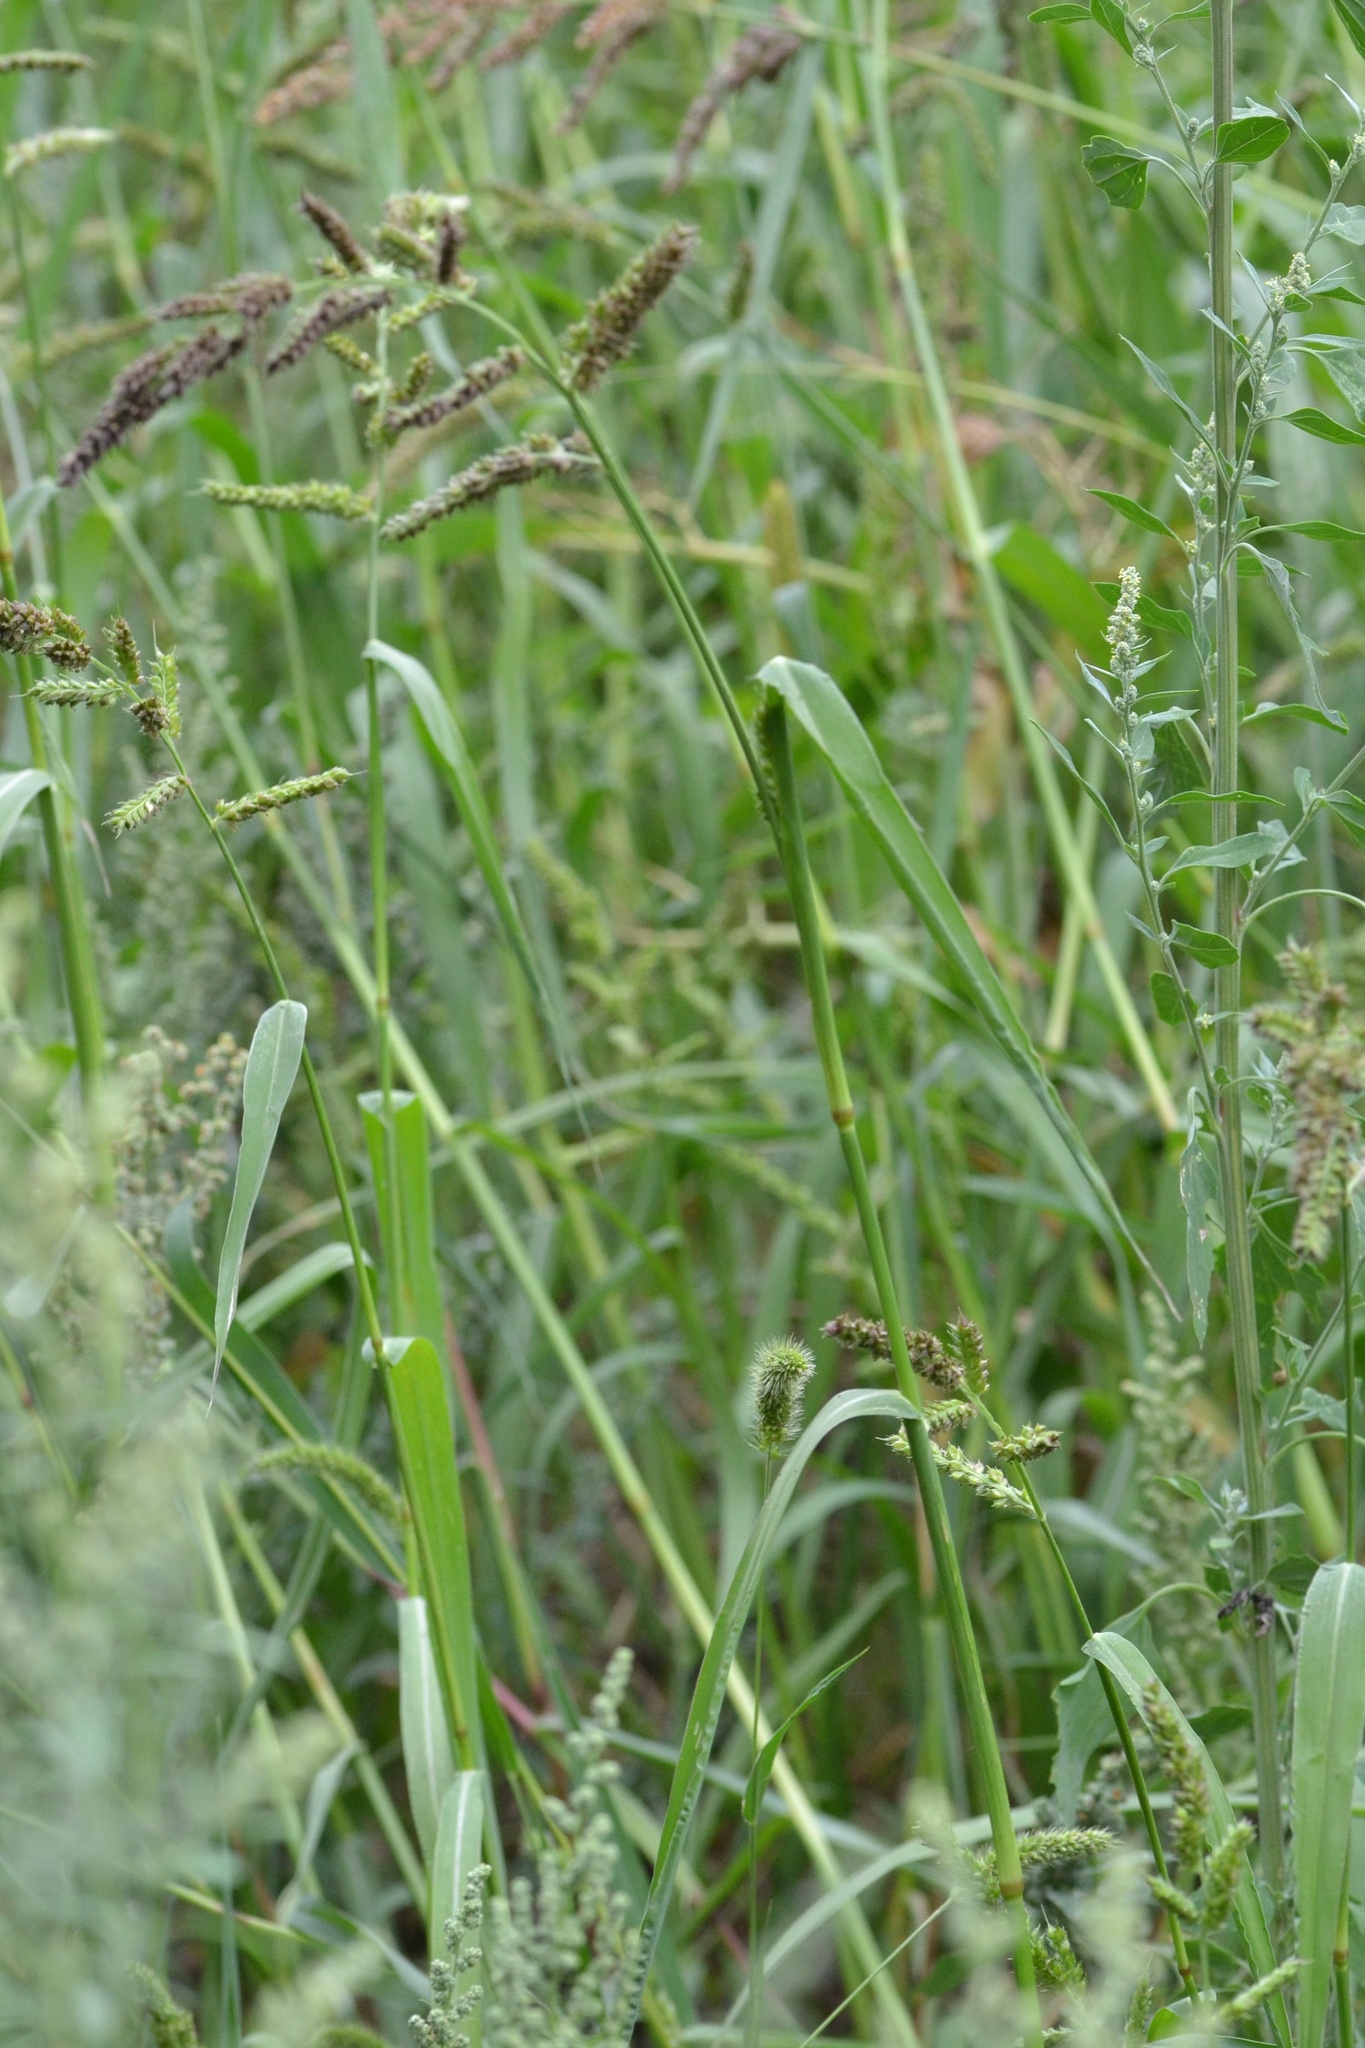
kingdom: Plantae
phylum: Tracheophyta
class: Liliopsida
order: Poales
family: Poaceae
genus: Echinochloa
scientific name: Echinochloa crus-galli
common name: Cockspur
